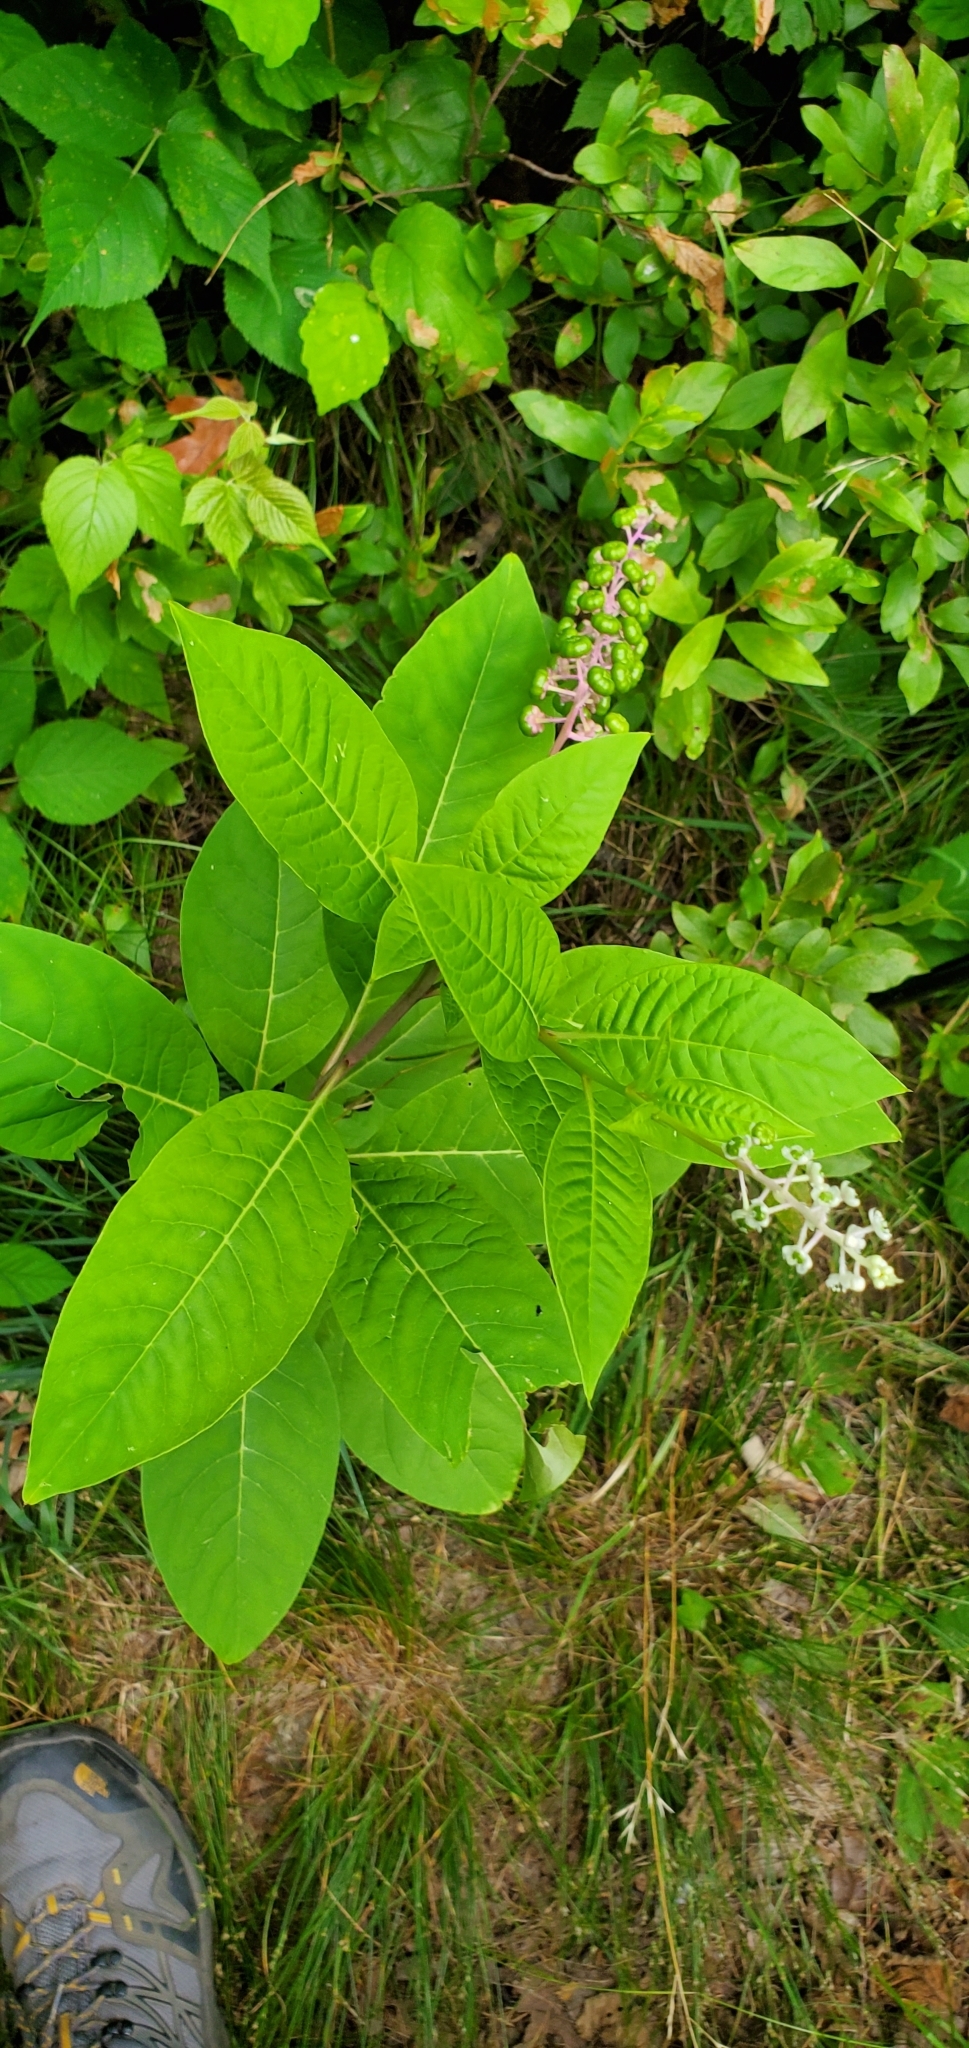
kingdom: Plantae
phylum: Tracheophyta
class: Magnoliopsida
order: Caryophyllales
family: Phytolaccaceae
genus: Phytolacca
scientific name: Phytolacca americana
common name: American pokeweed
